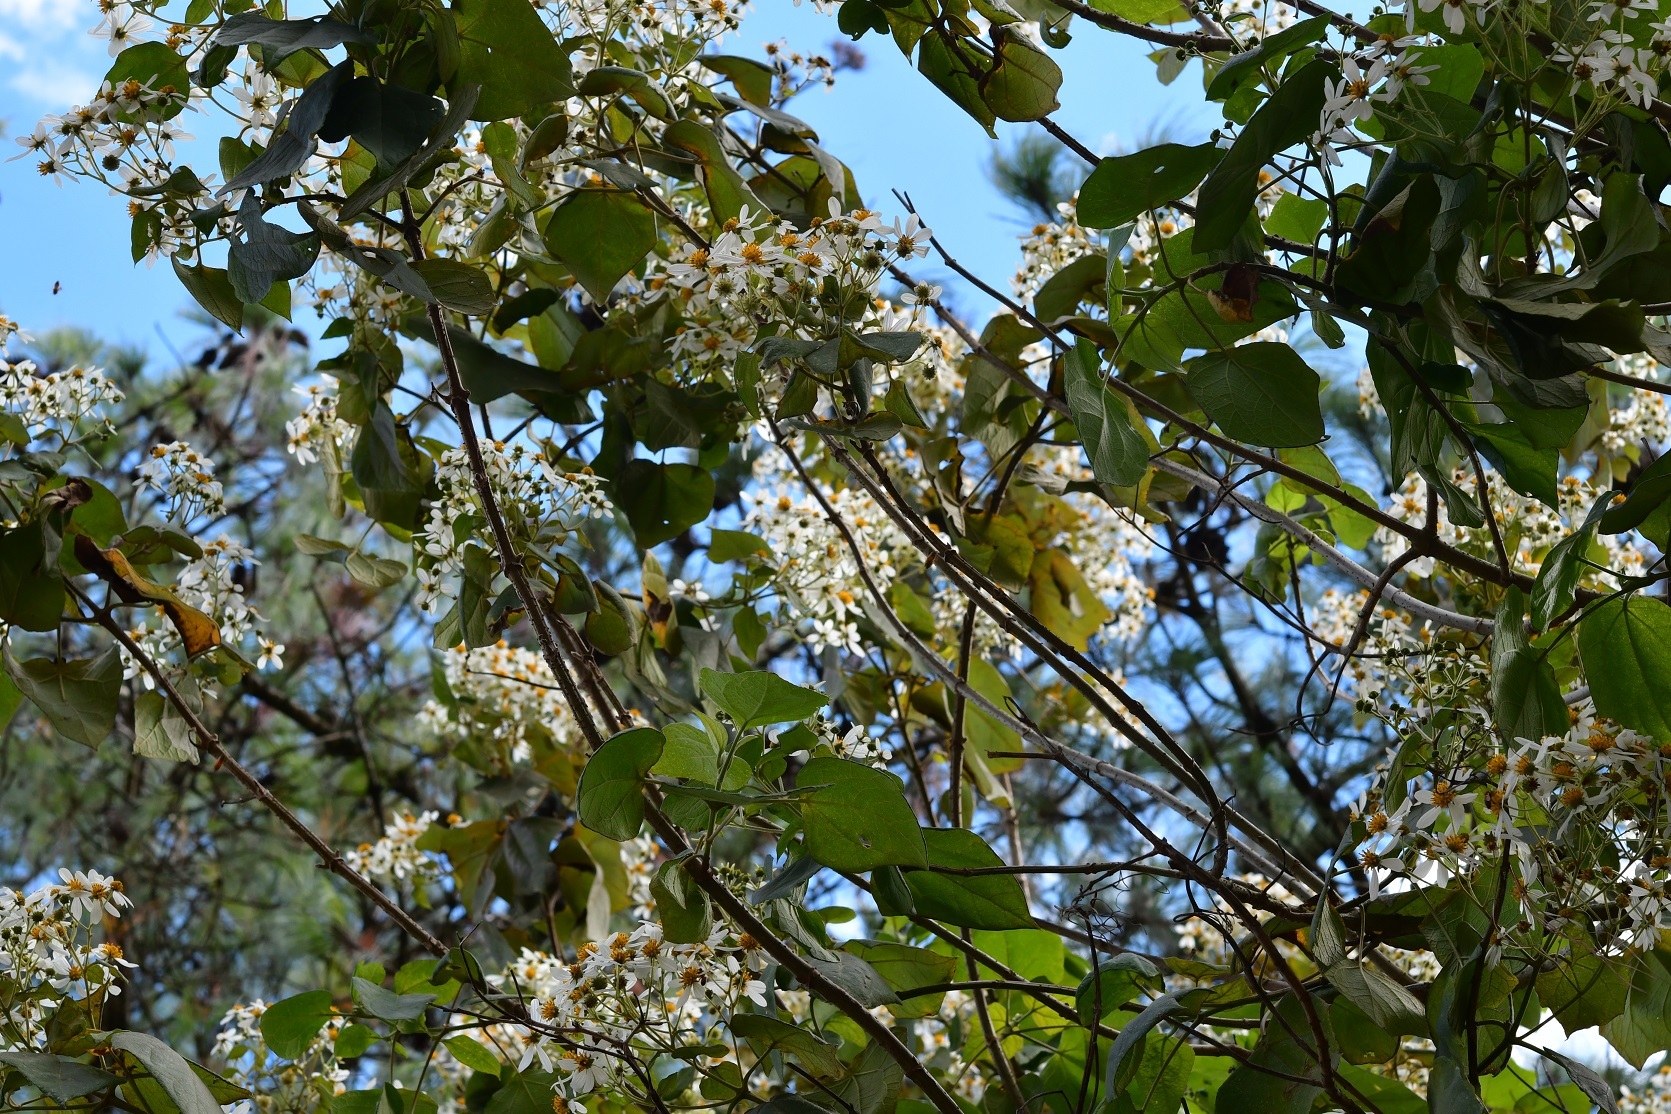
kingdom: Plantae
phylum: Tracheophyta
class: Magnoliopsida
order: Asterales
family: Asteraceae
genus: Montanoa
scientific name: Montanoa leucantha
